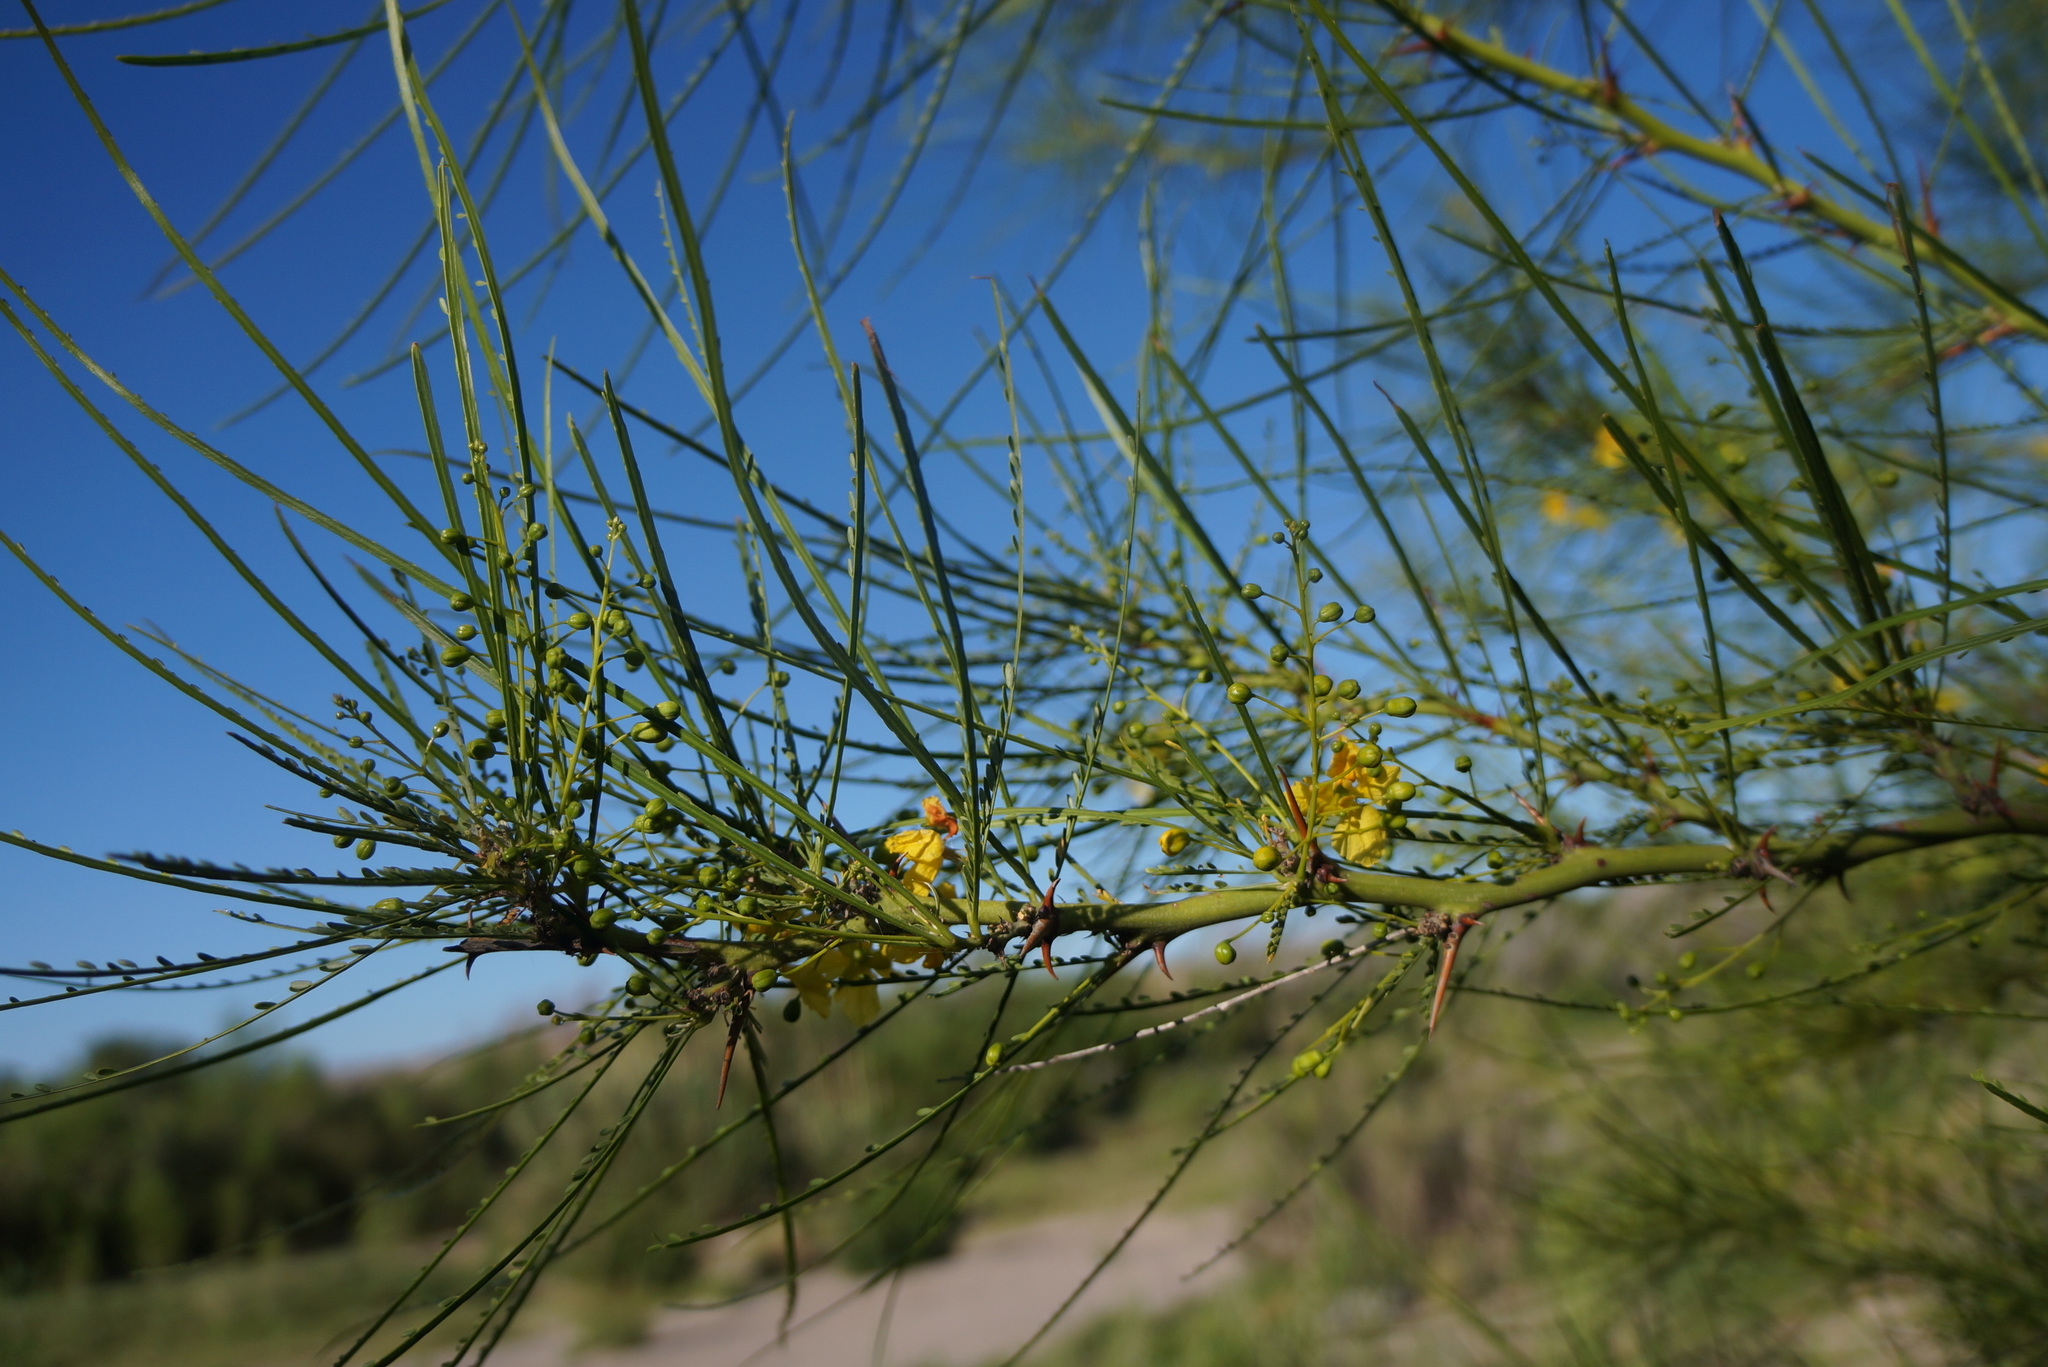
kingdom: Plantae
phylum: Tracheophyta
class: Magnoliopsida
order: Fabales
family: Fabaceae
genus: Parkinsonia
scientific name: Parkinsonia aculeata
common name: Jerusalem thorn
